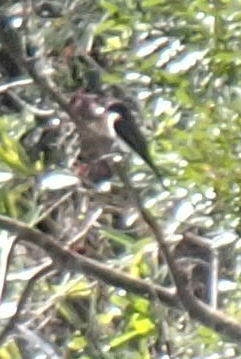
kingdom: Animalia
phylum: Chordata
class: Aves
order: Passeriformes
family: Tyrannidae
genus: Sayornis
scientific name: Sayornis phoebe
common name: Eastern phoebe
